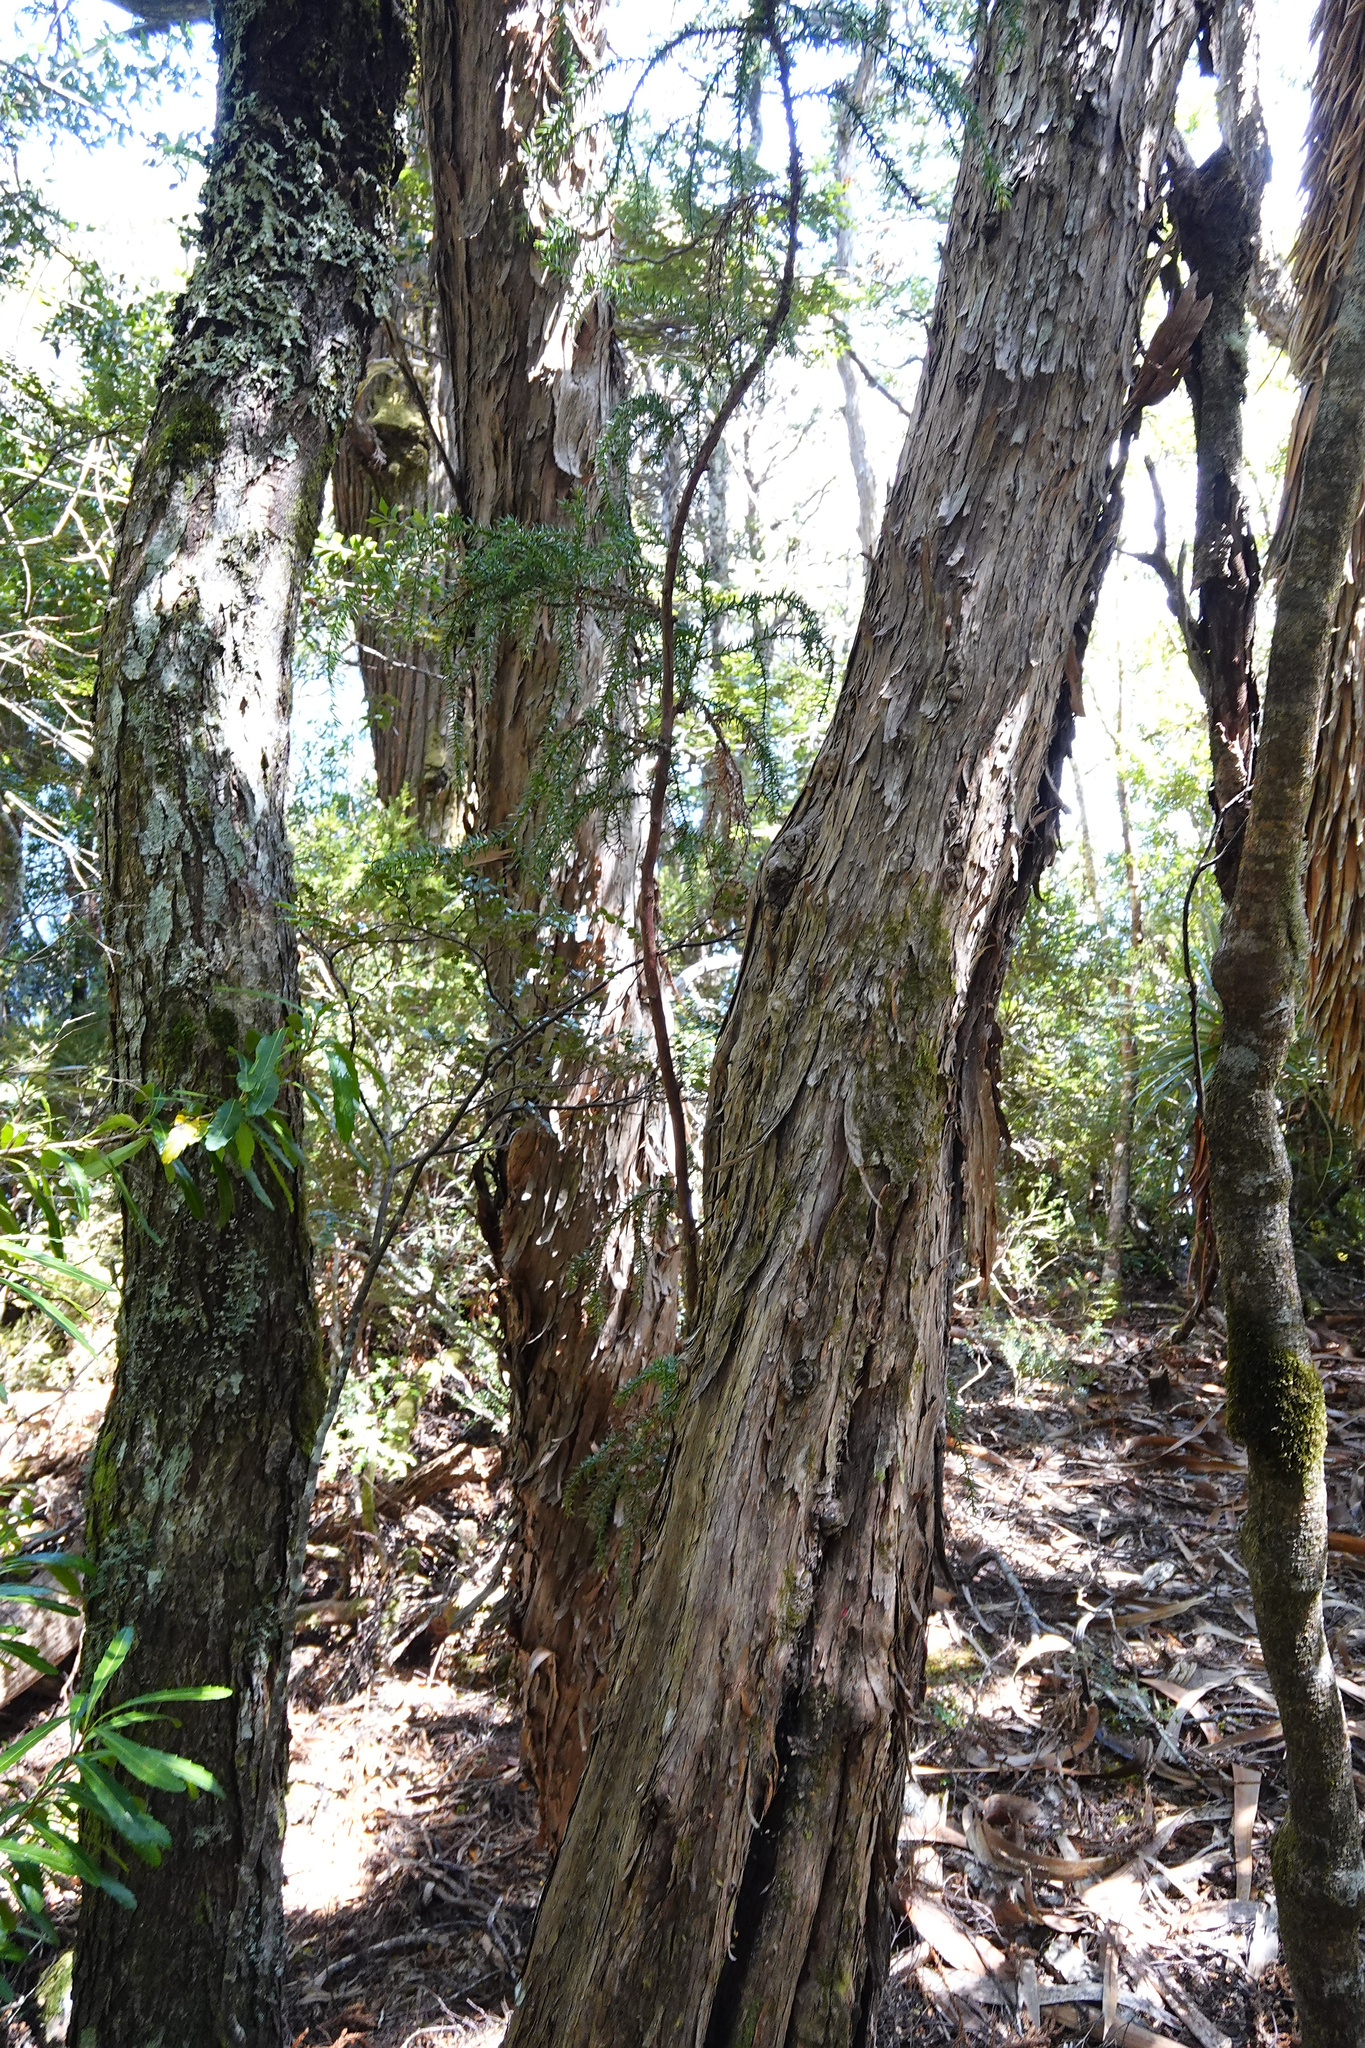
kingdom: Plantae
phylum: Tracheophyta
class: Pinopsida
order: Pinales
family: Cupressaceae
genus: Athrotaxis
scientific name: Athrotaxis selaginoides
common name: King william pine
